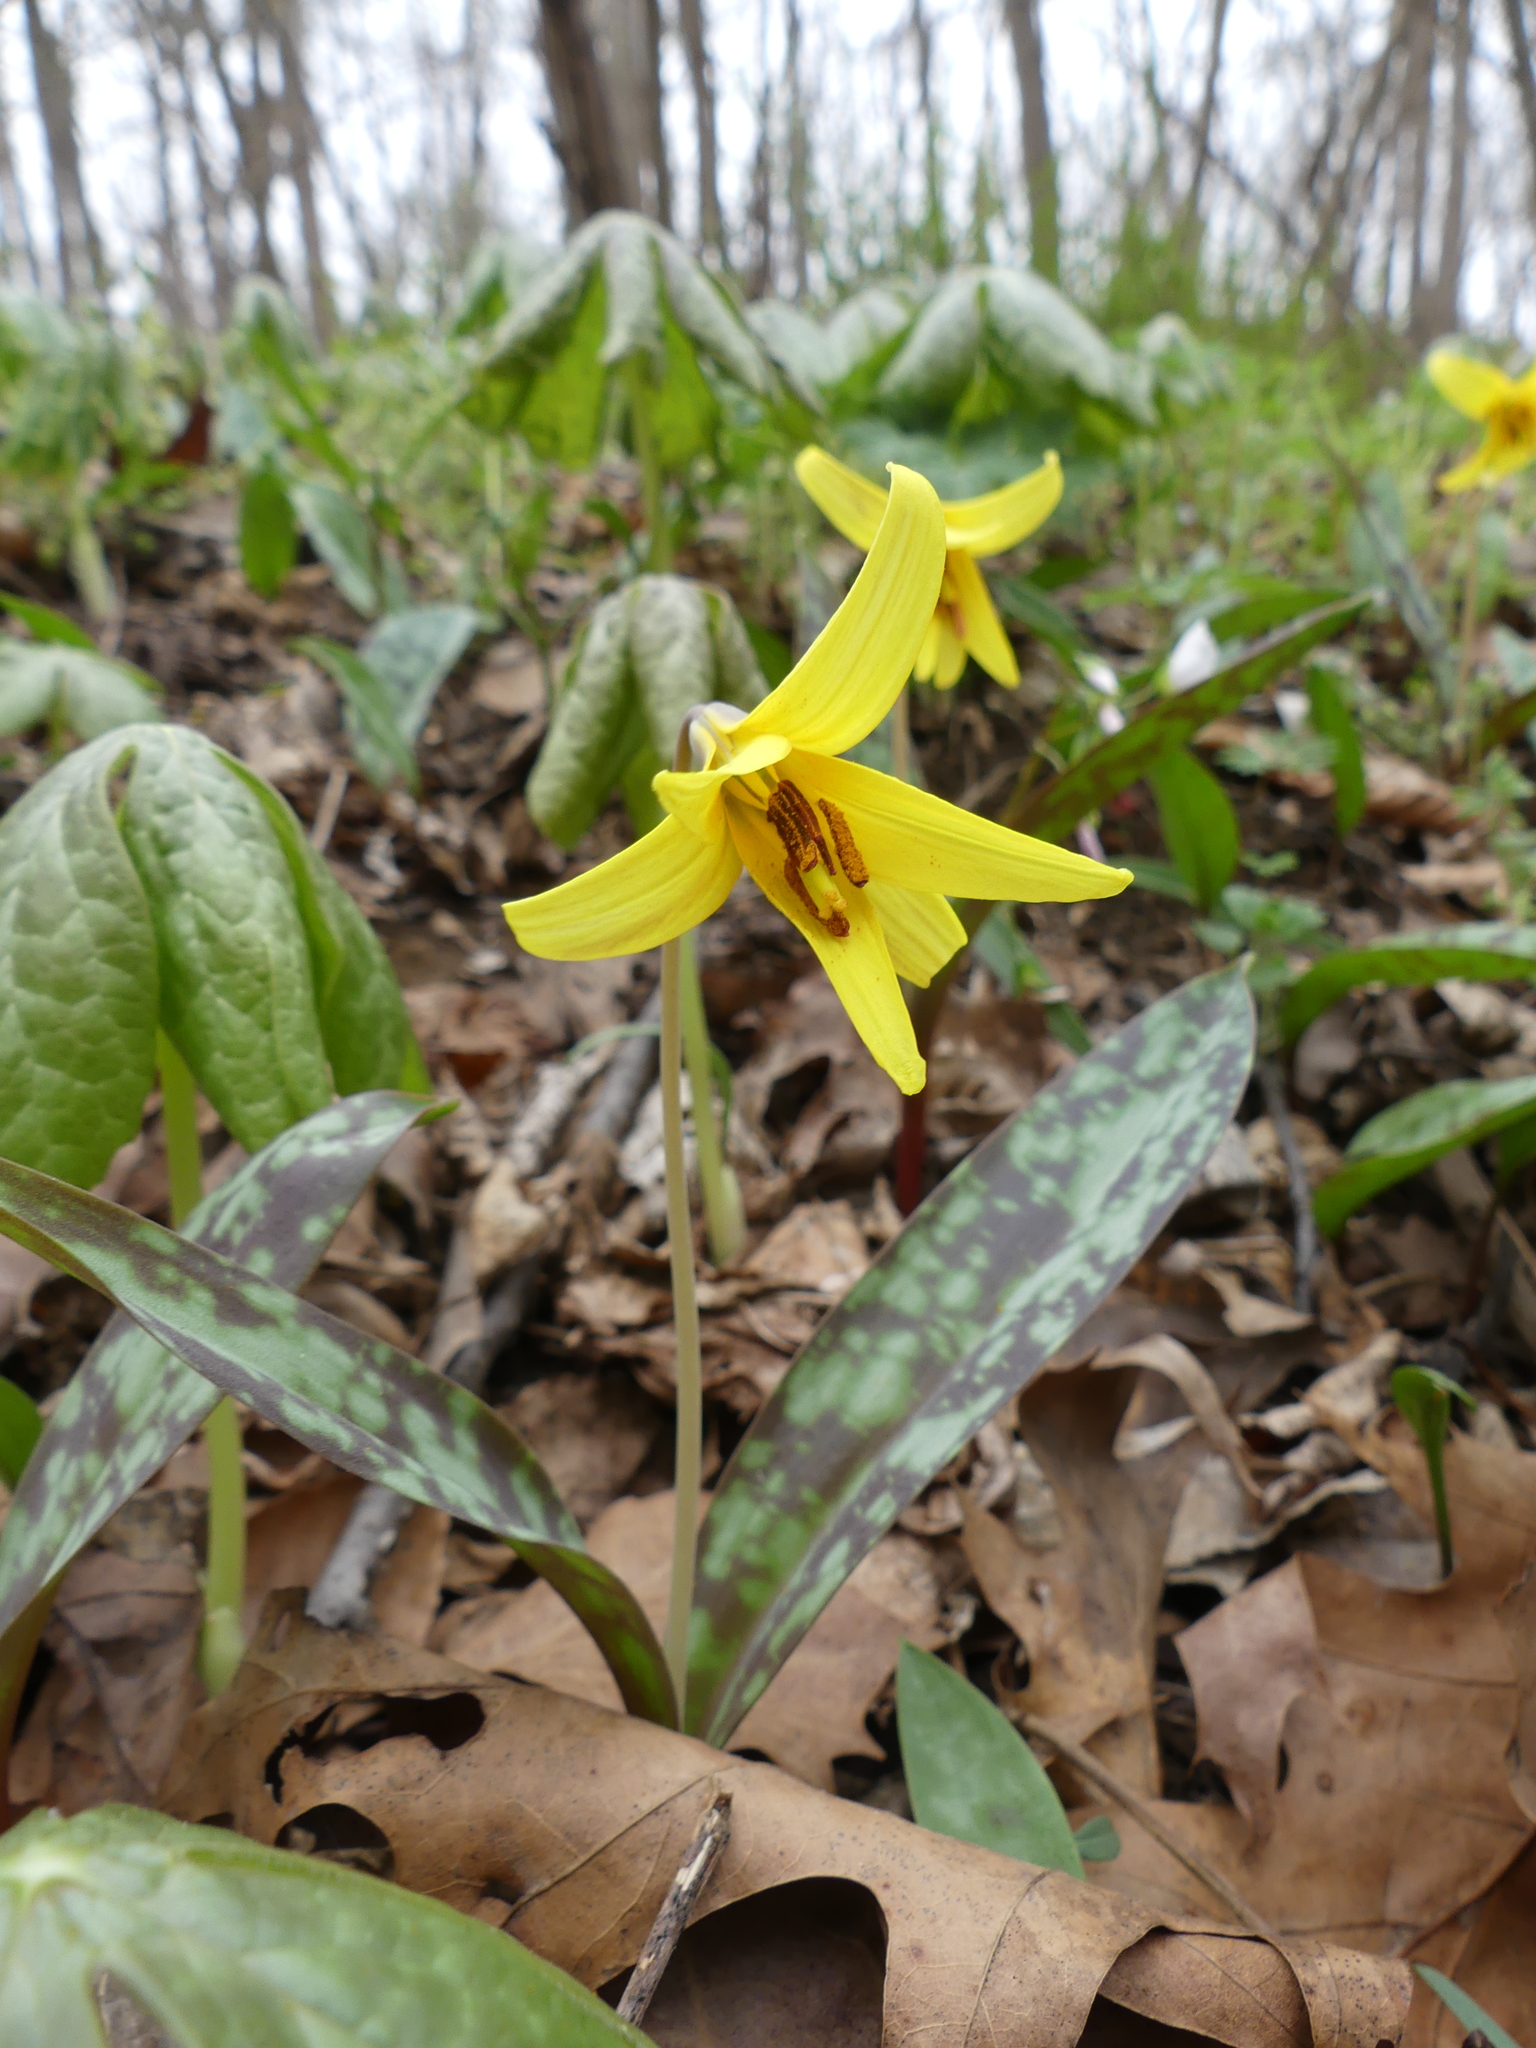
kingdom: Plantae
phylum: Tracheophyta
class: Liliopsida
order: Liliales
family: Liliaceae
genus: Erythronium
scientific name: Erythronium americanum
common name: Yellow adder's-tongue
